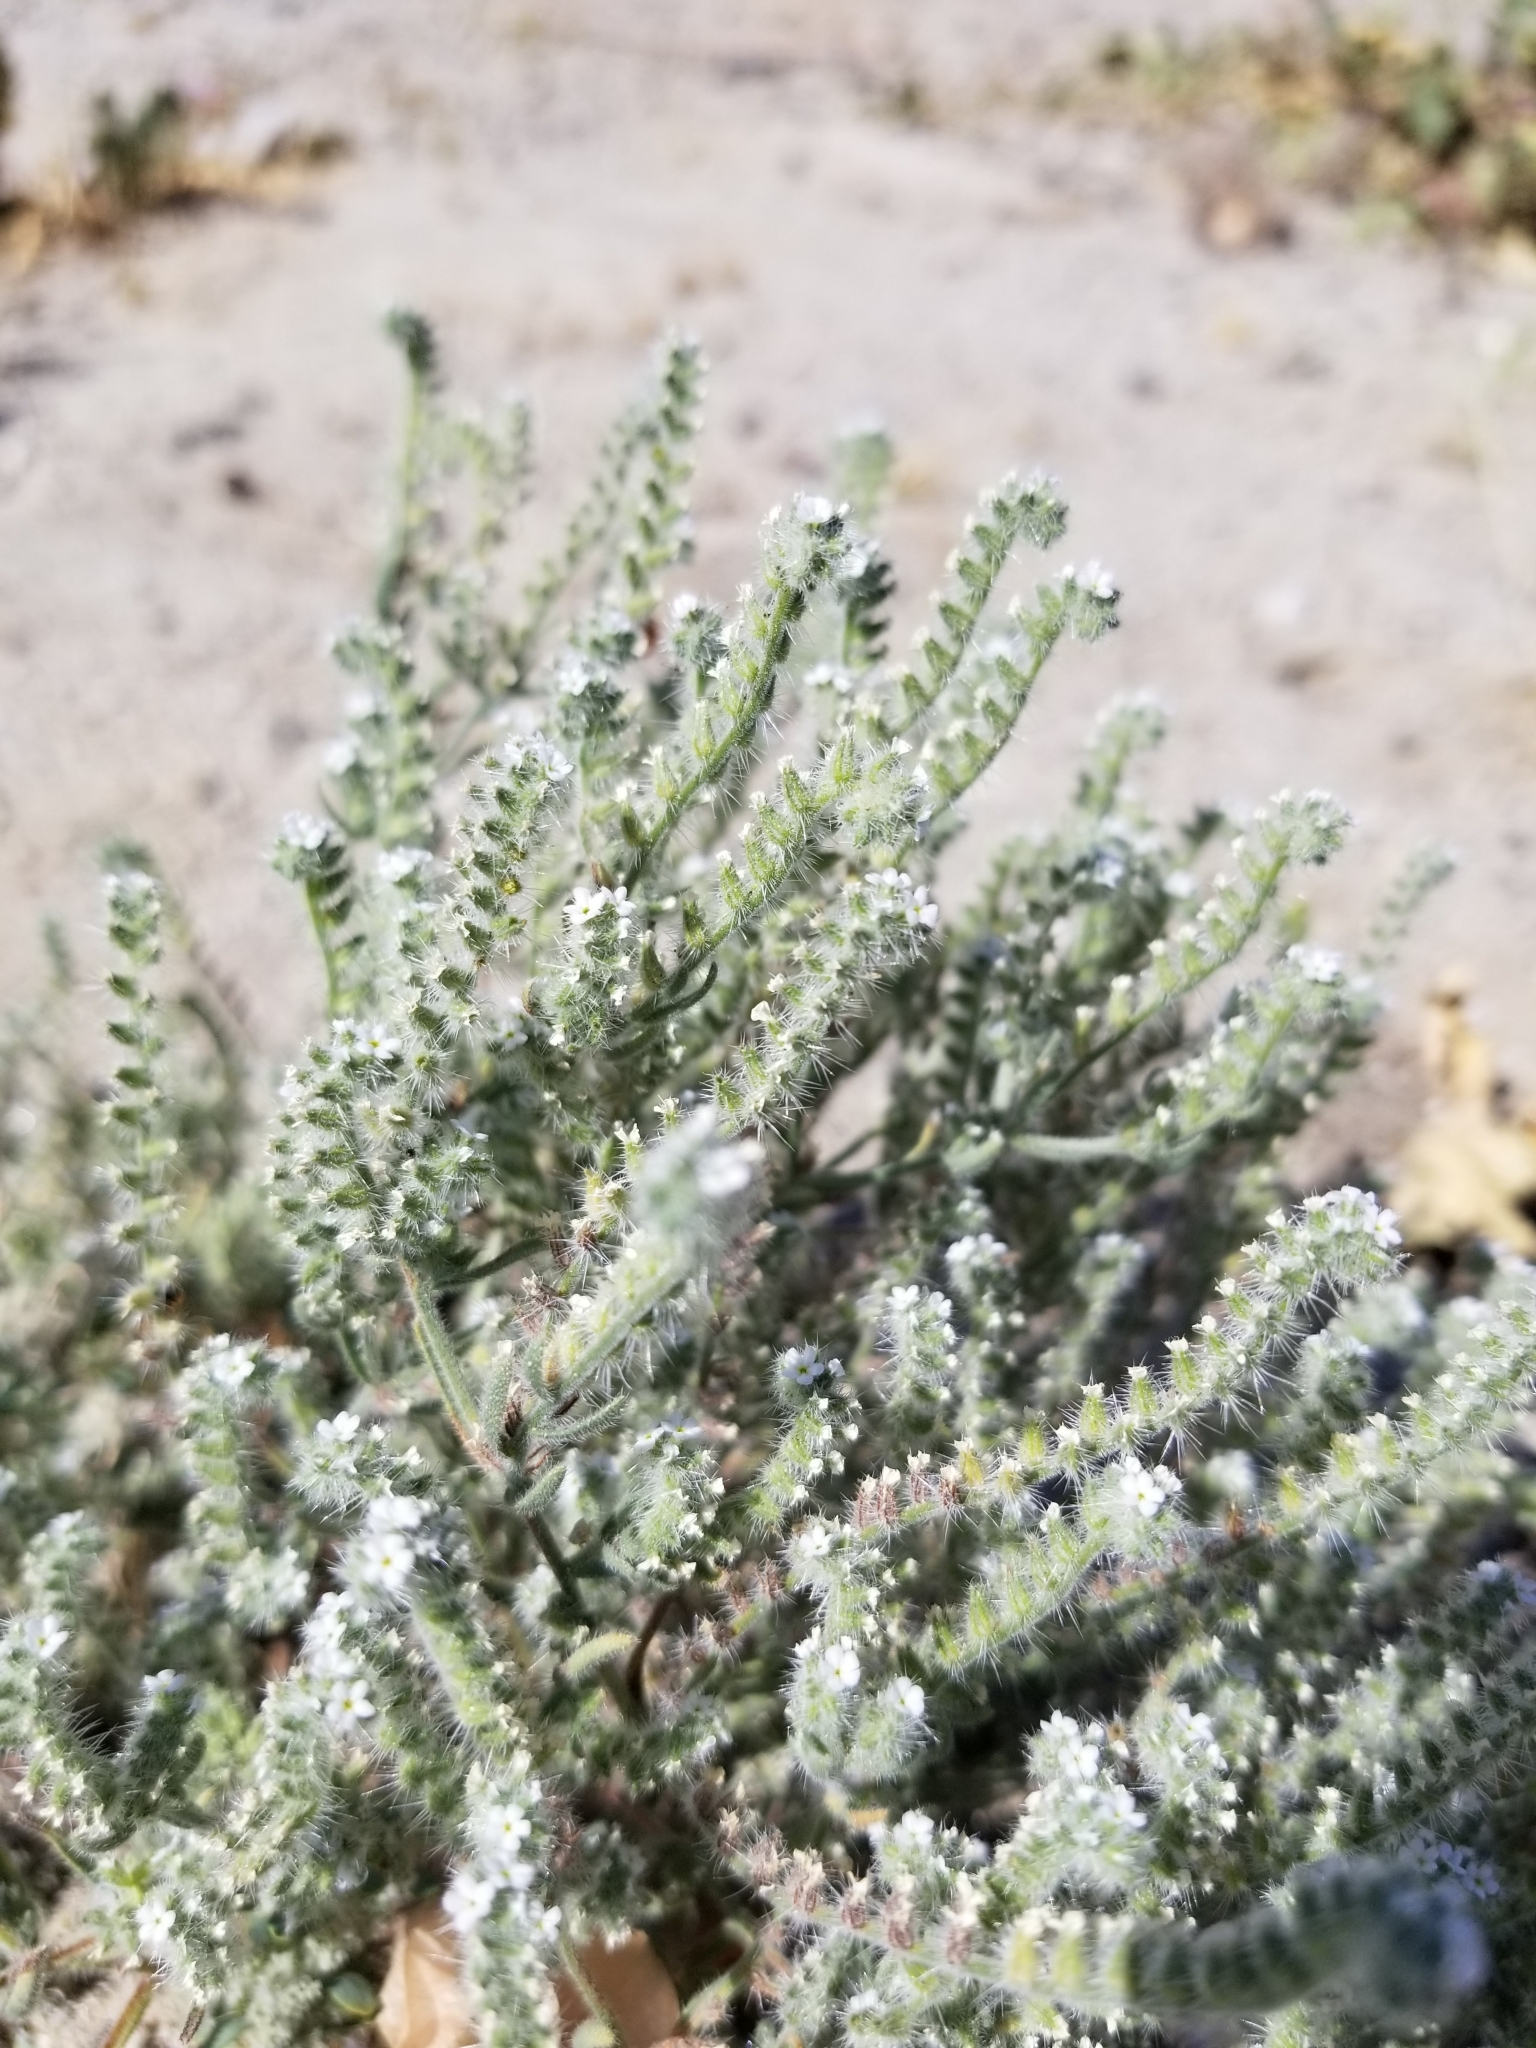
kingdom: Plantae
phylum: Tracheophyta
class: Magnoliopsida
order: Boraginales
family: Boraginaceae
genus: Johnstonella
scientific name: Johnstonella angustifolia
